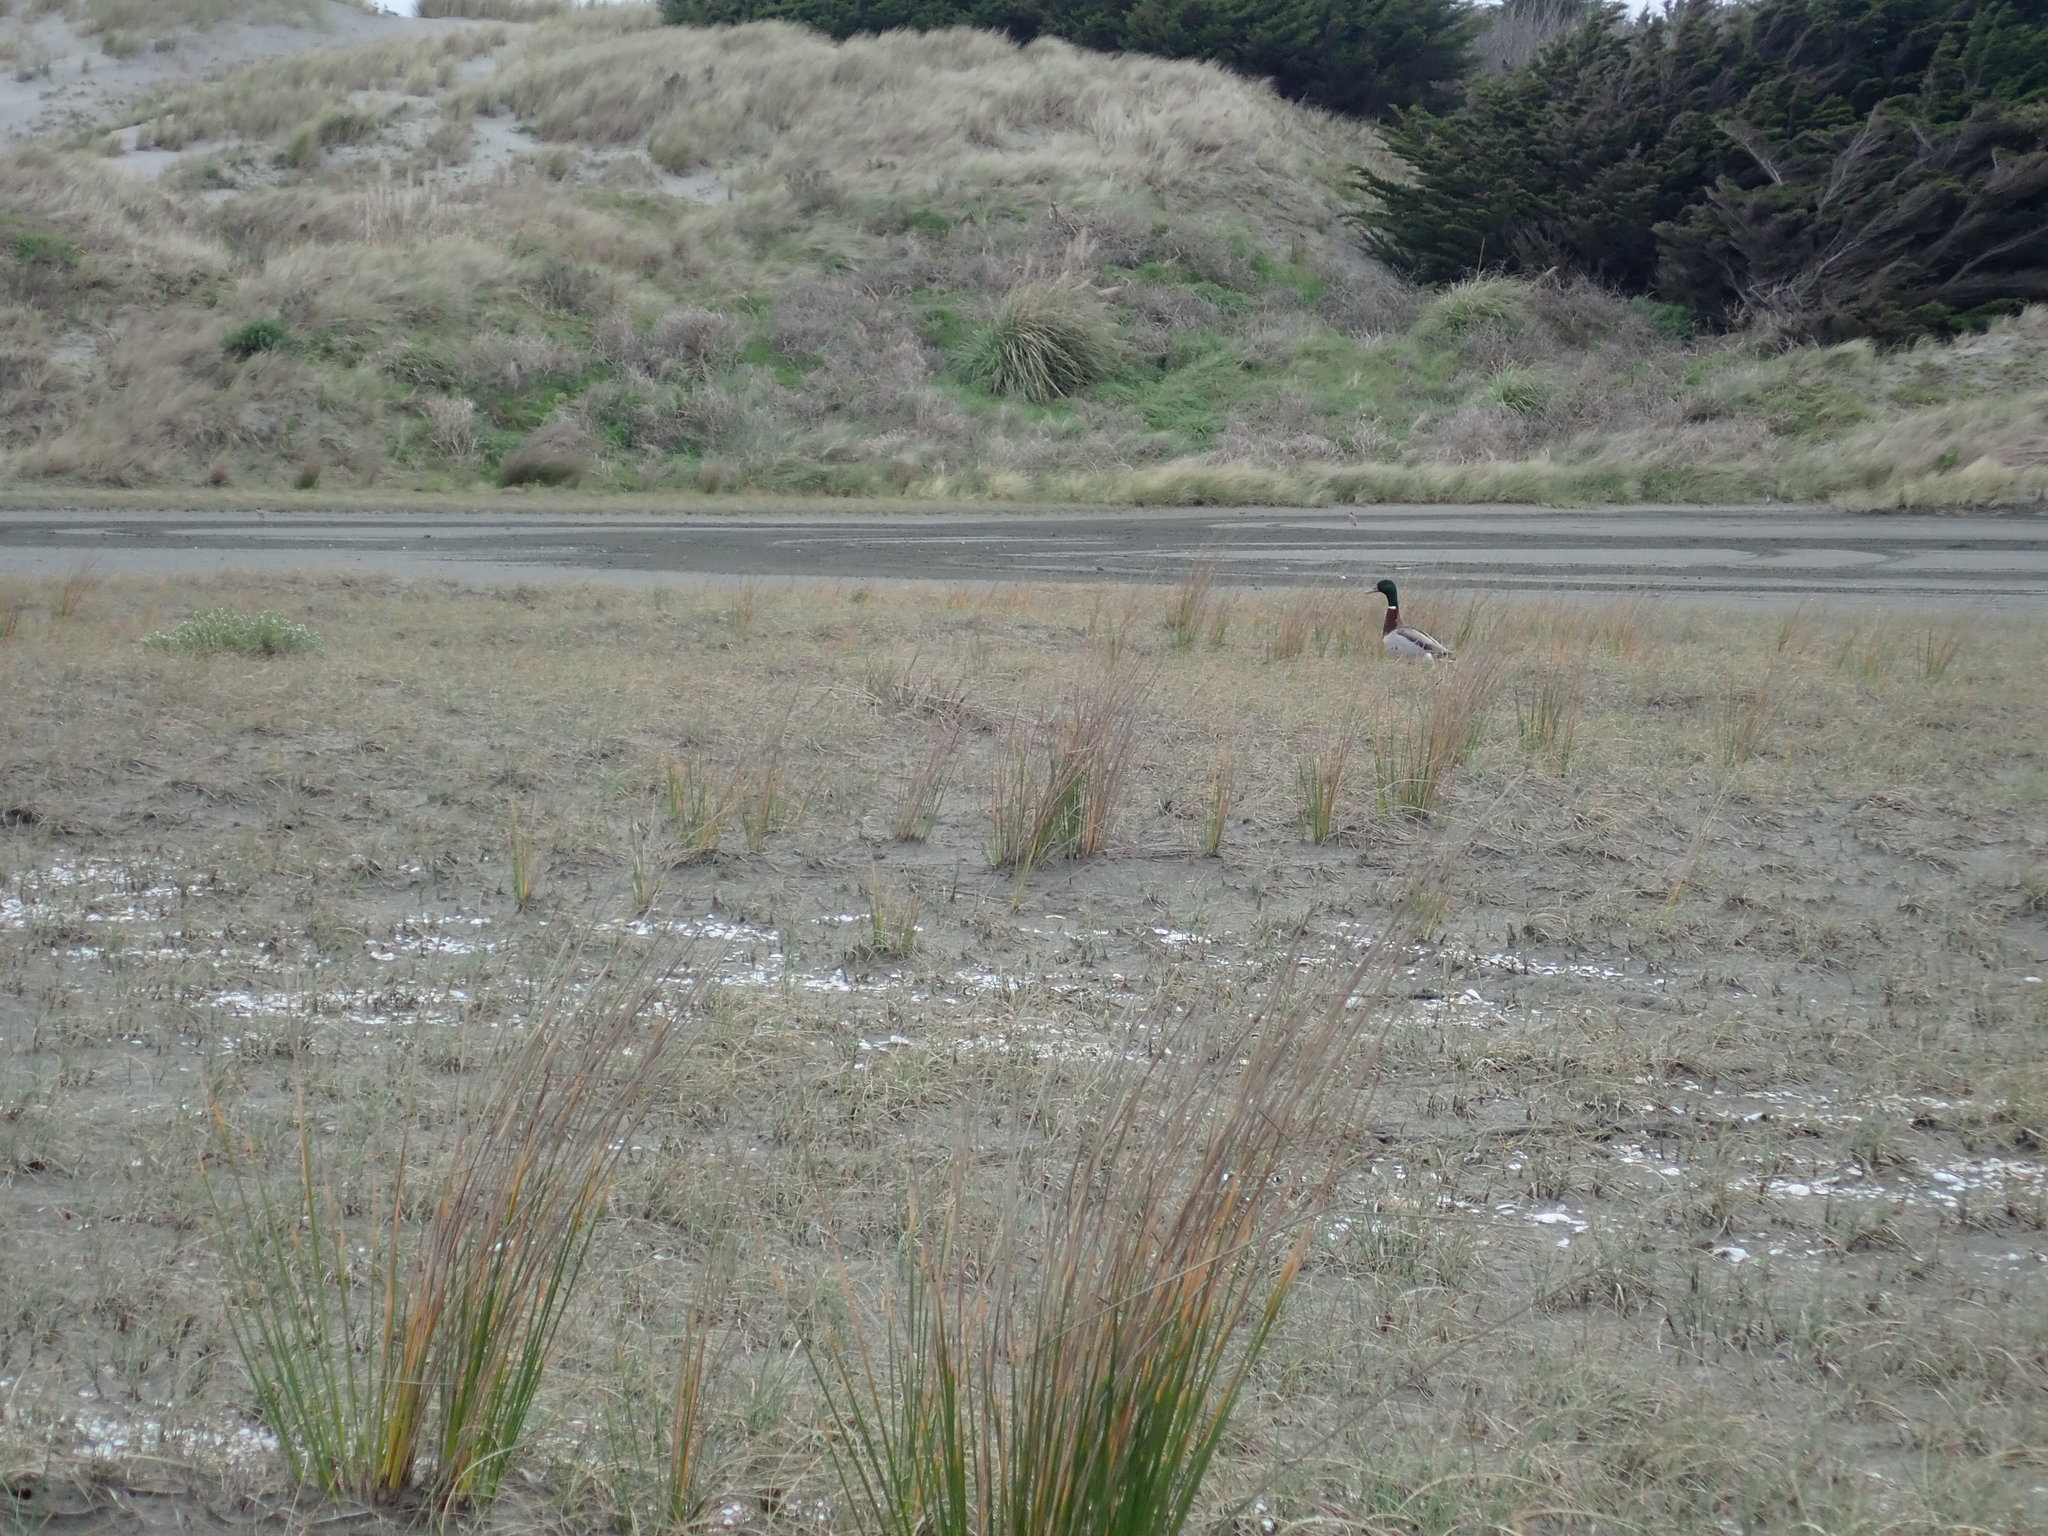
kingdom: Animalia
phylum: Chordata
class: Aves
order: Anseriformes
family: Anatidae
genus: Anas
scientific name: Anas platyrhynchos
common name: Mallard
